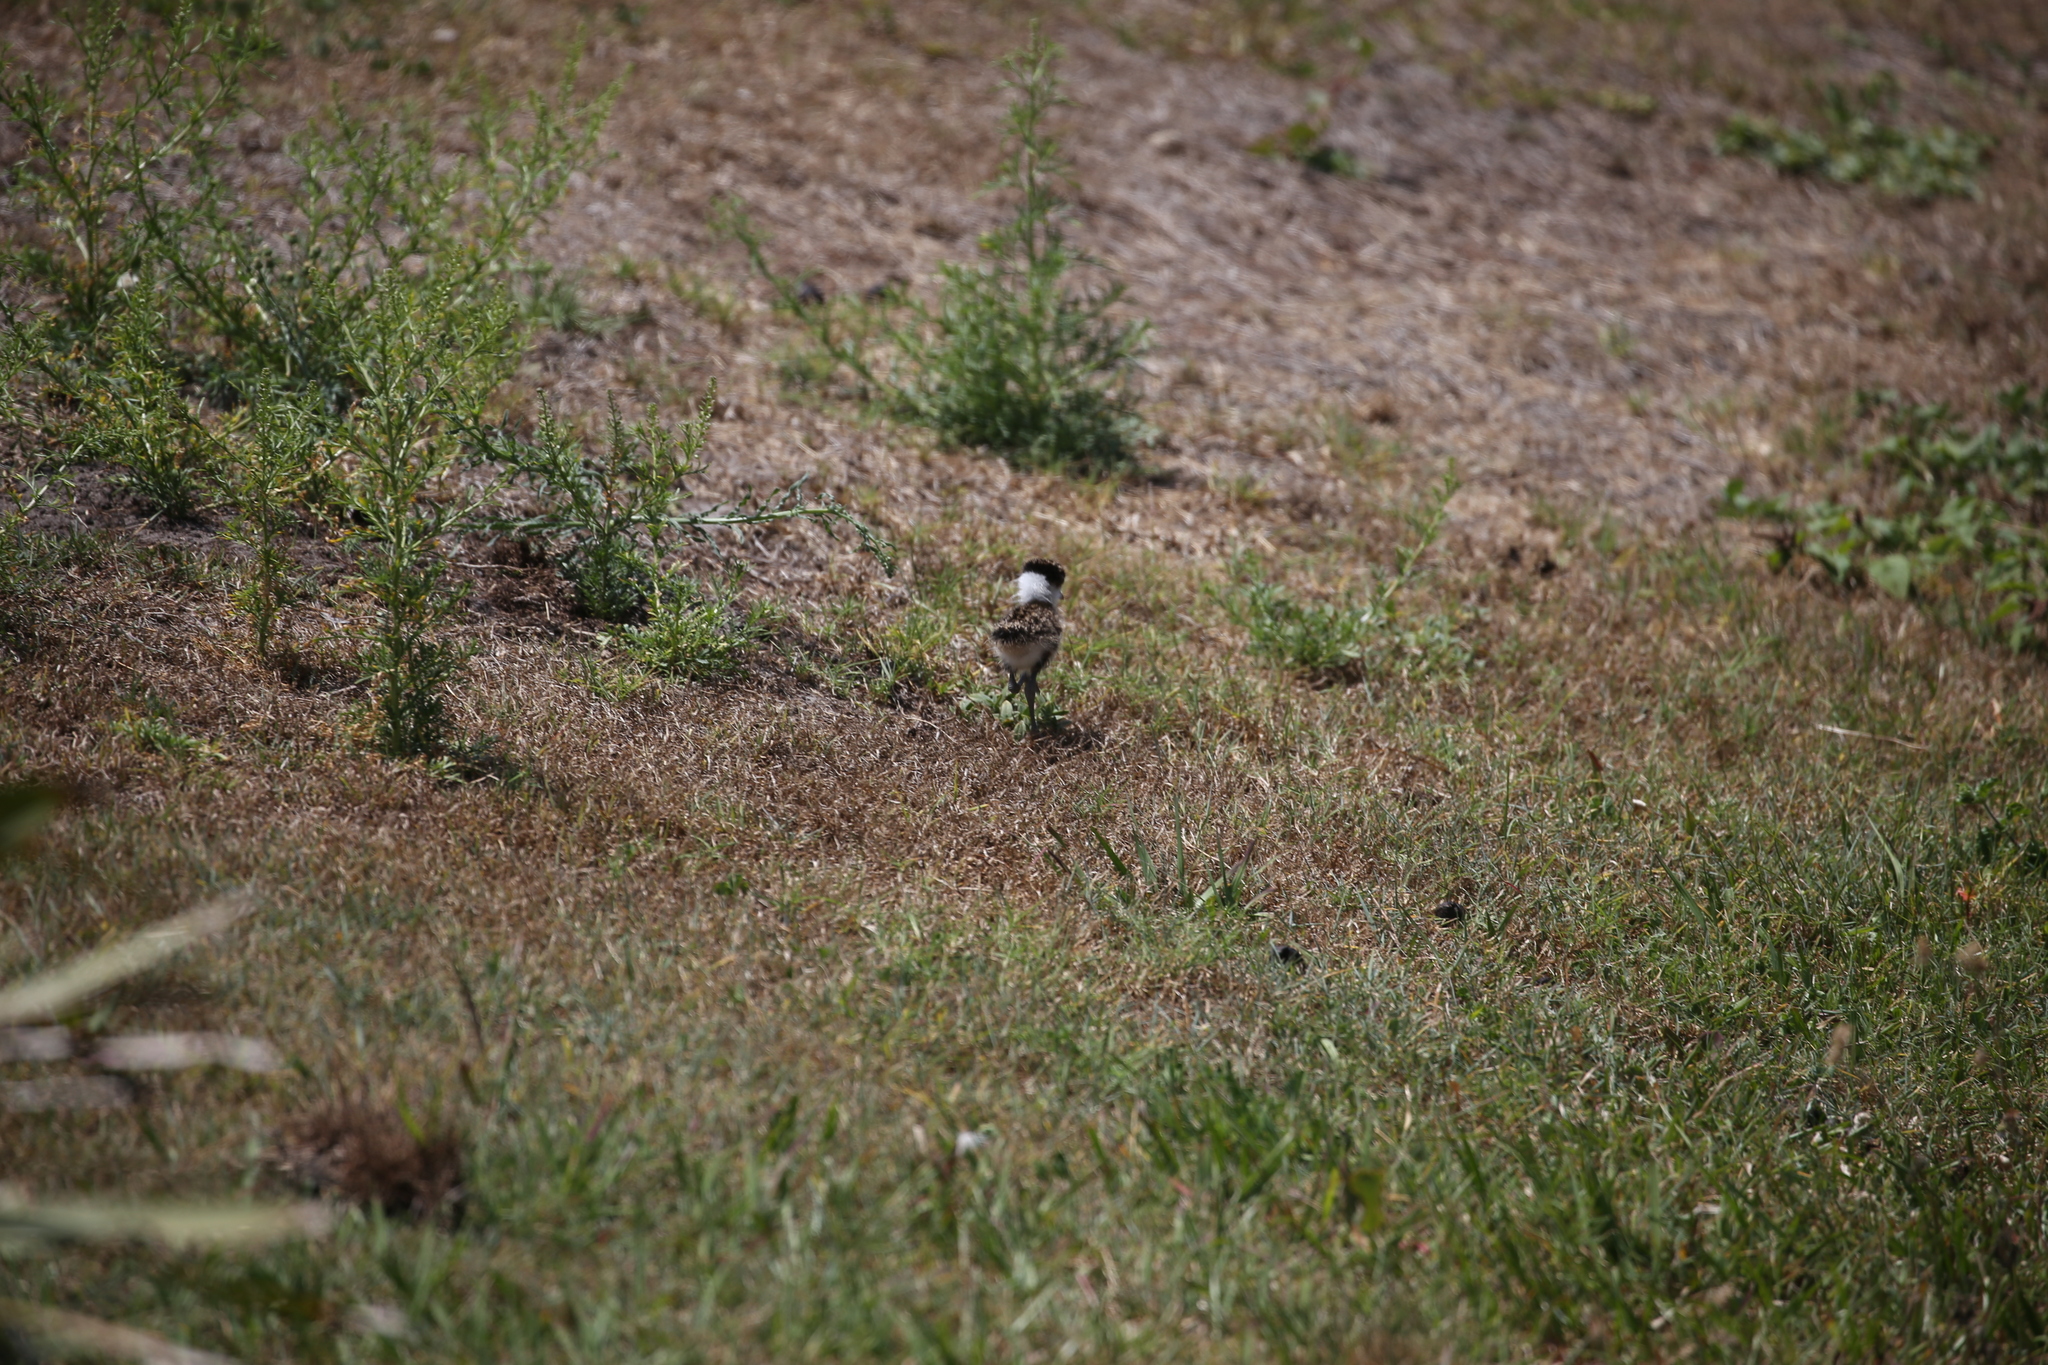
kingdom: Animalia
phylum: Chordata
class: Aves
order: Charadriiformes
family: Charadriidae
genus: Vanellus
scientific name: Vanellus miles
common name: Masked lapwing
